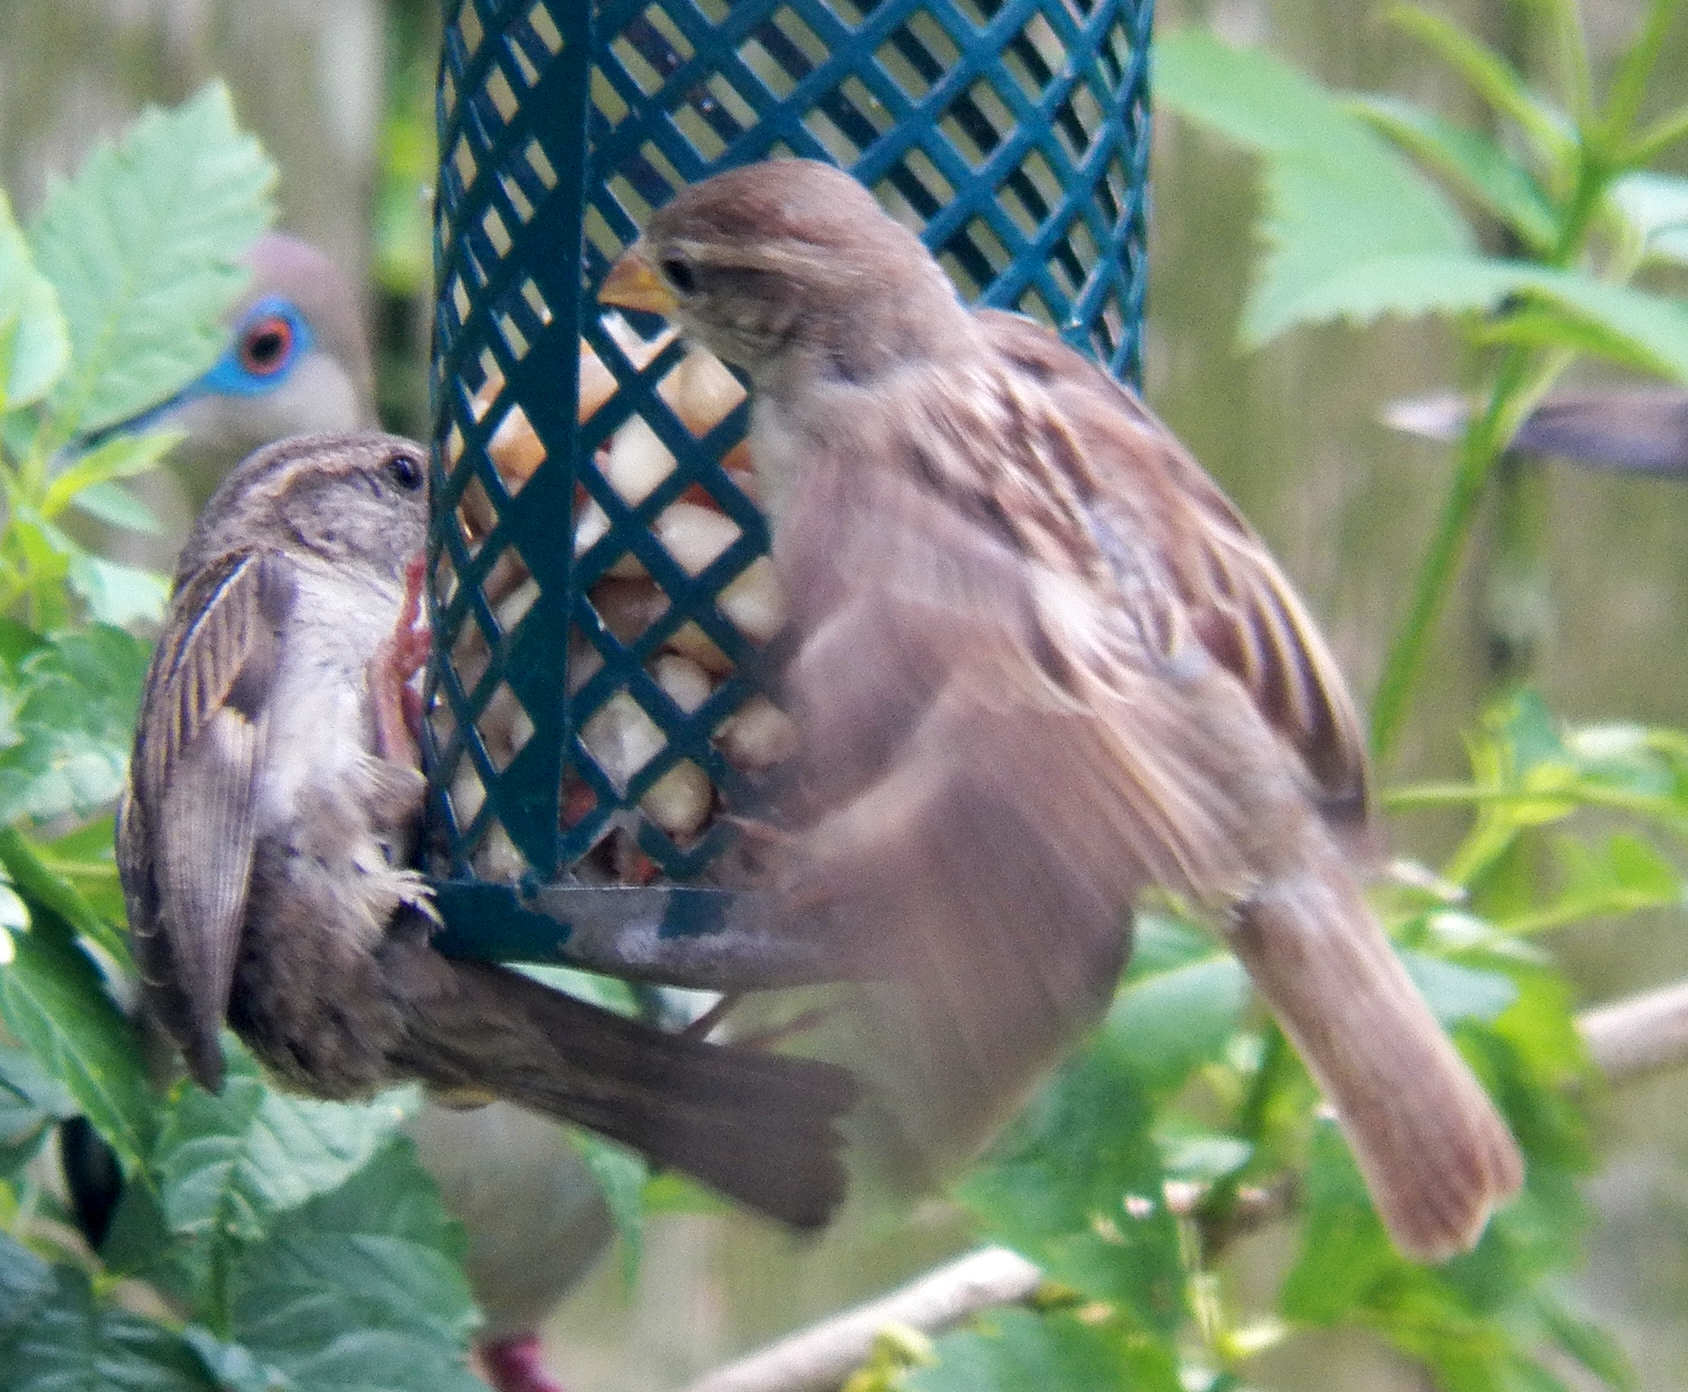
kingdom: Animalia
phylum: Chordata
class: Aves
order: Passeriformes
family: Passeridae
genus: Passer
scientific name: Passer domesticus
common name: House sparrow
